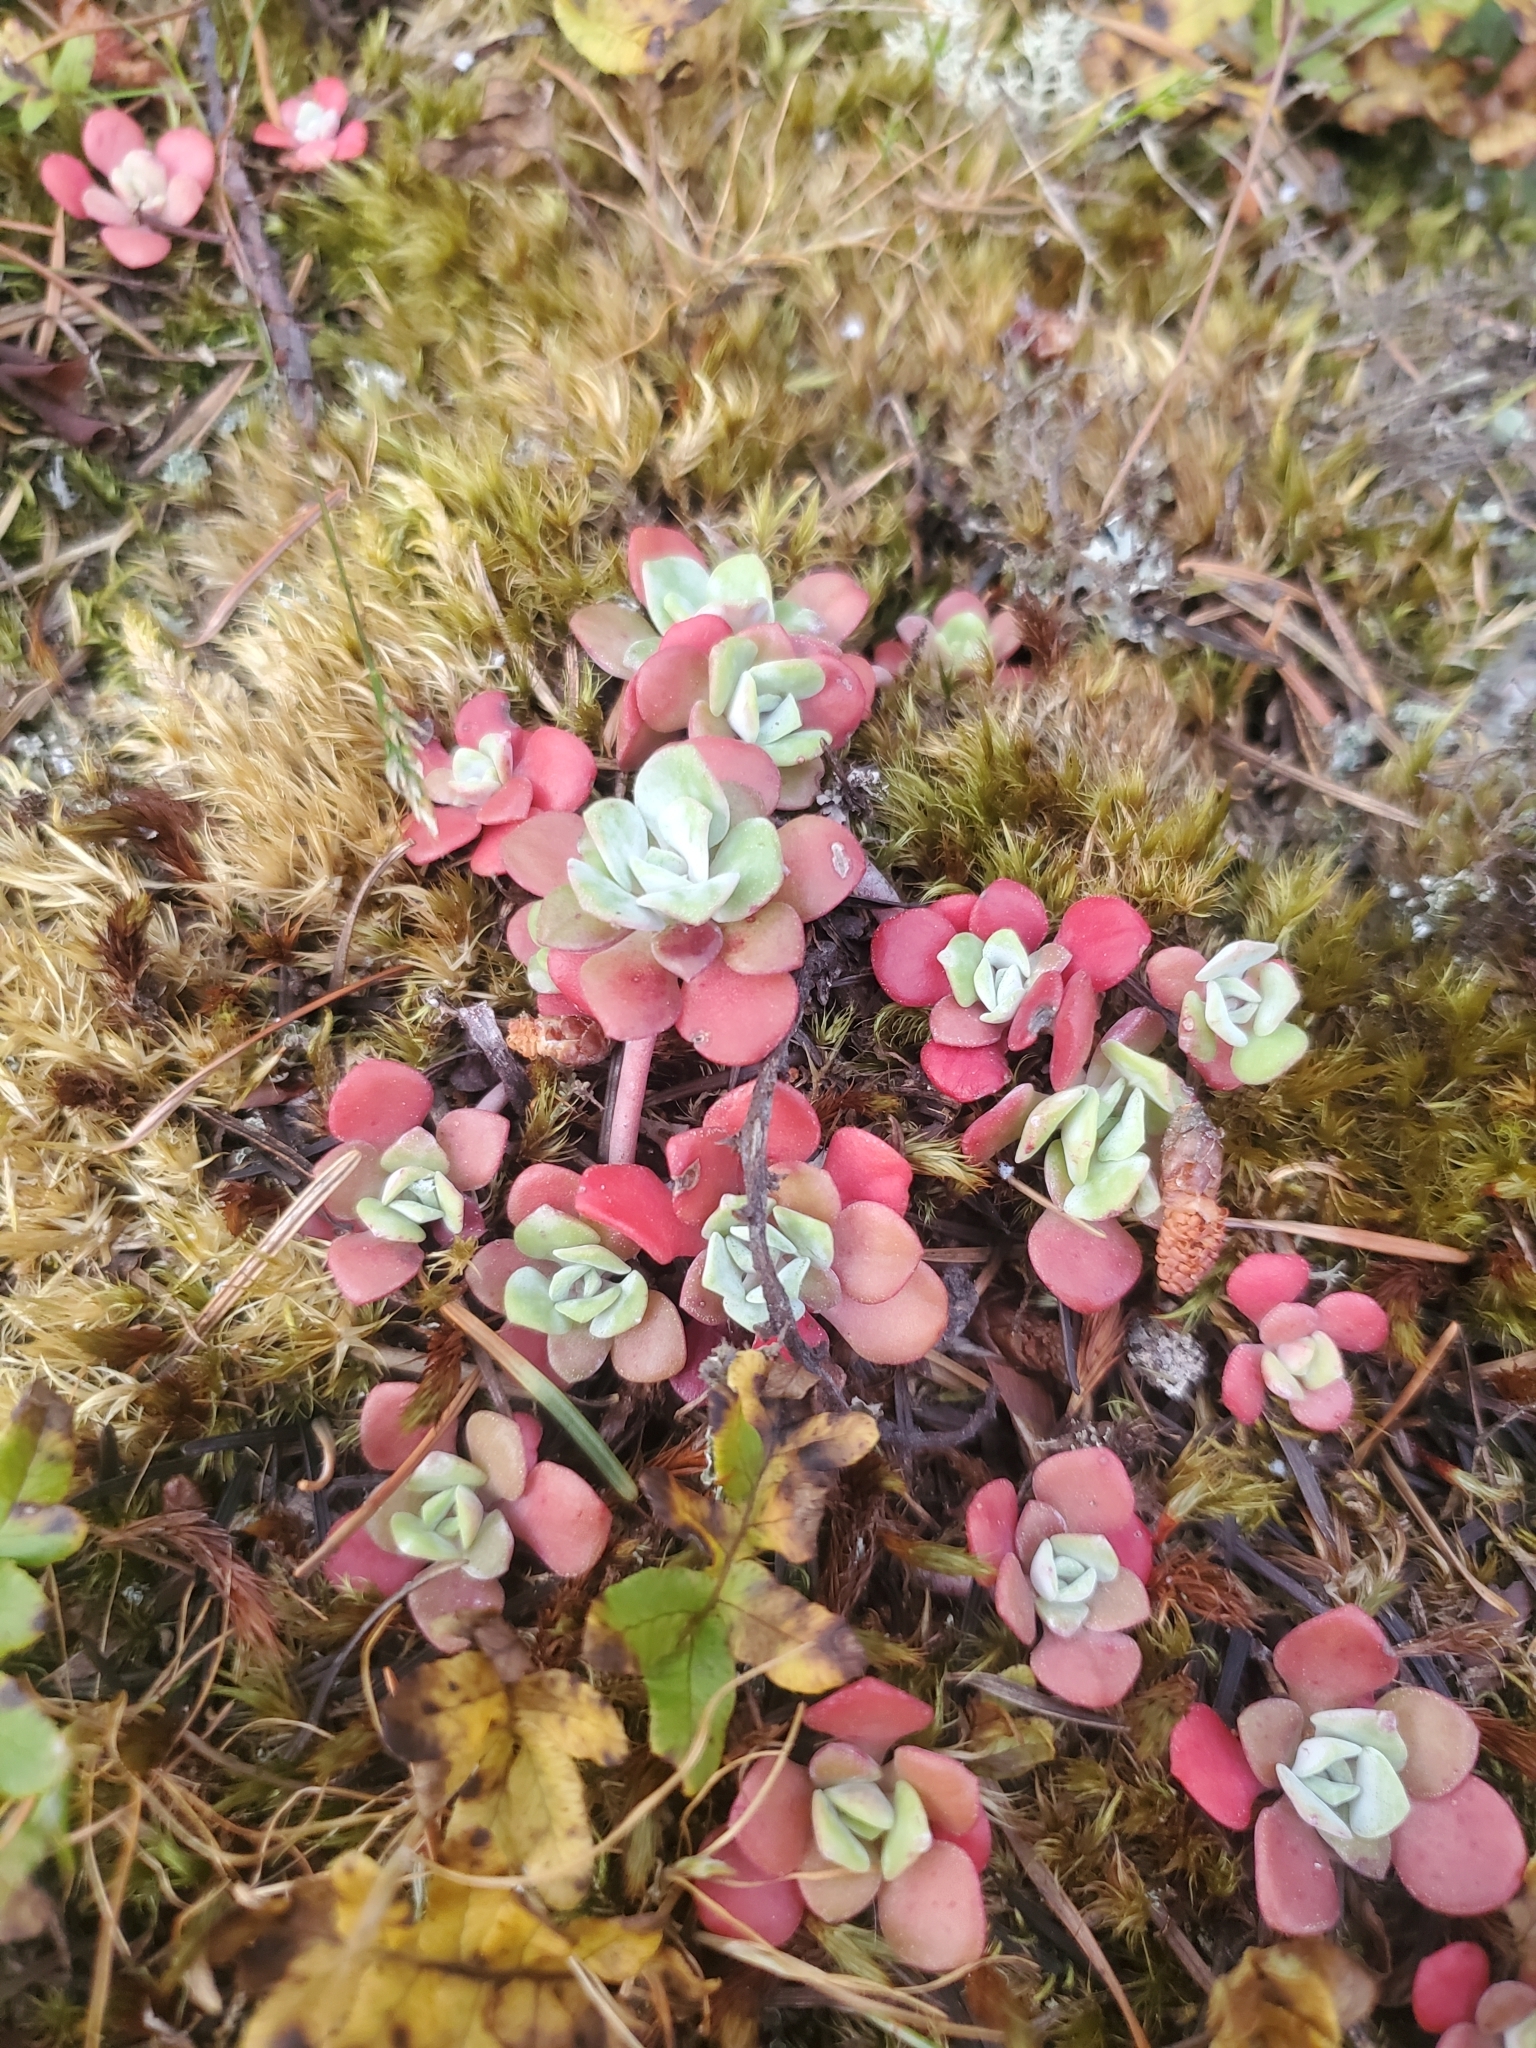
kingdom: Plantae
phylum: Tracheophyta
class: Magnoliopsida
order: Saxifragales
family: Crassulaceae
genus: Sedum
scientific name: Sedum spathulifolium
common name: Colorado stonecrop
